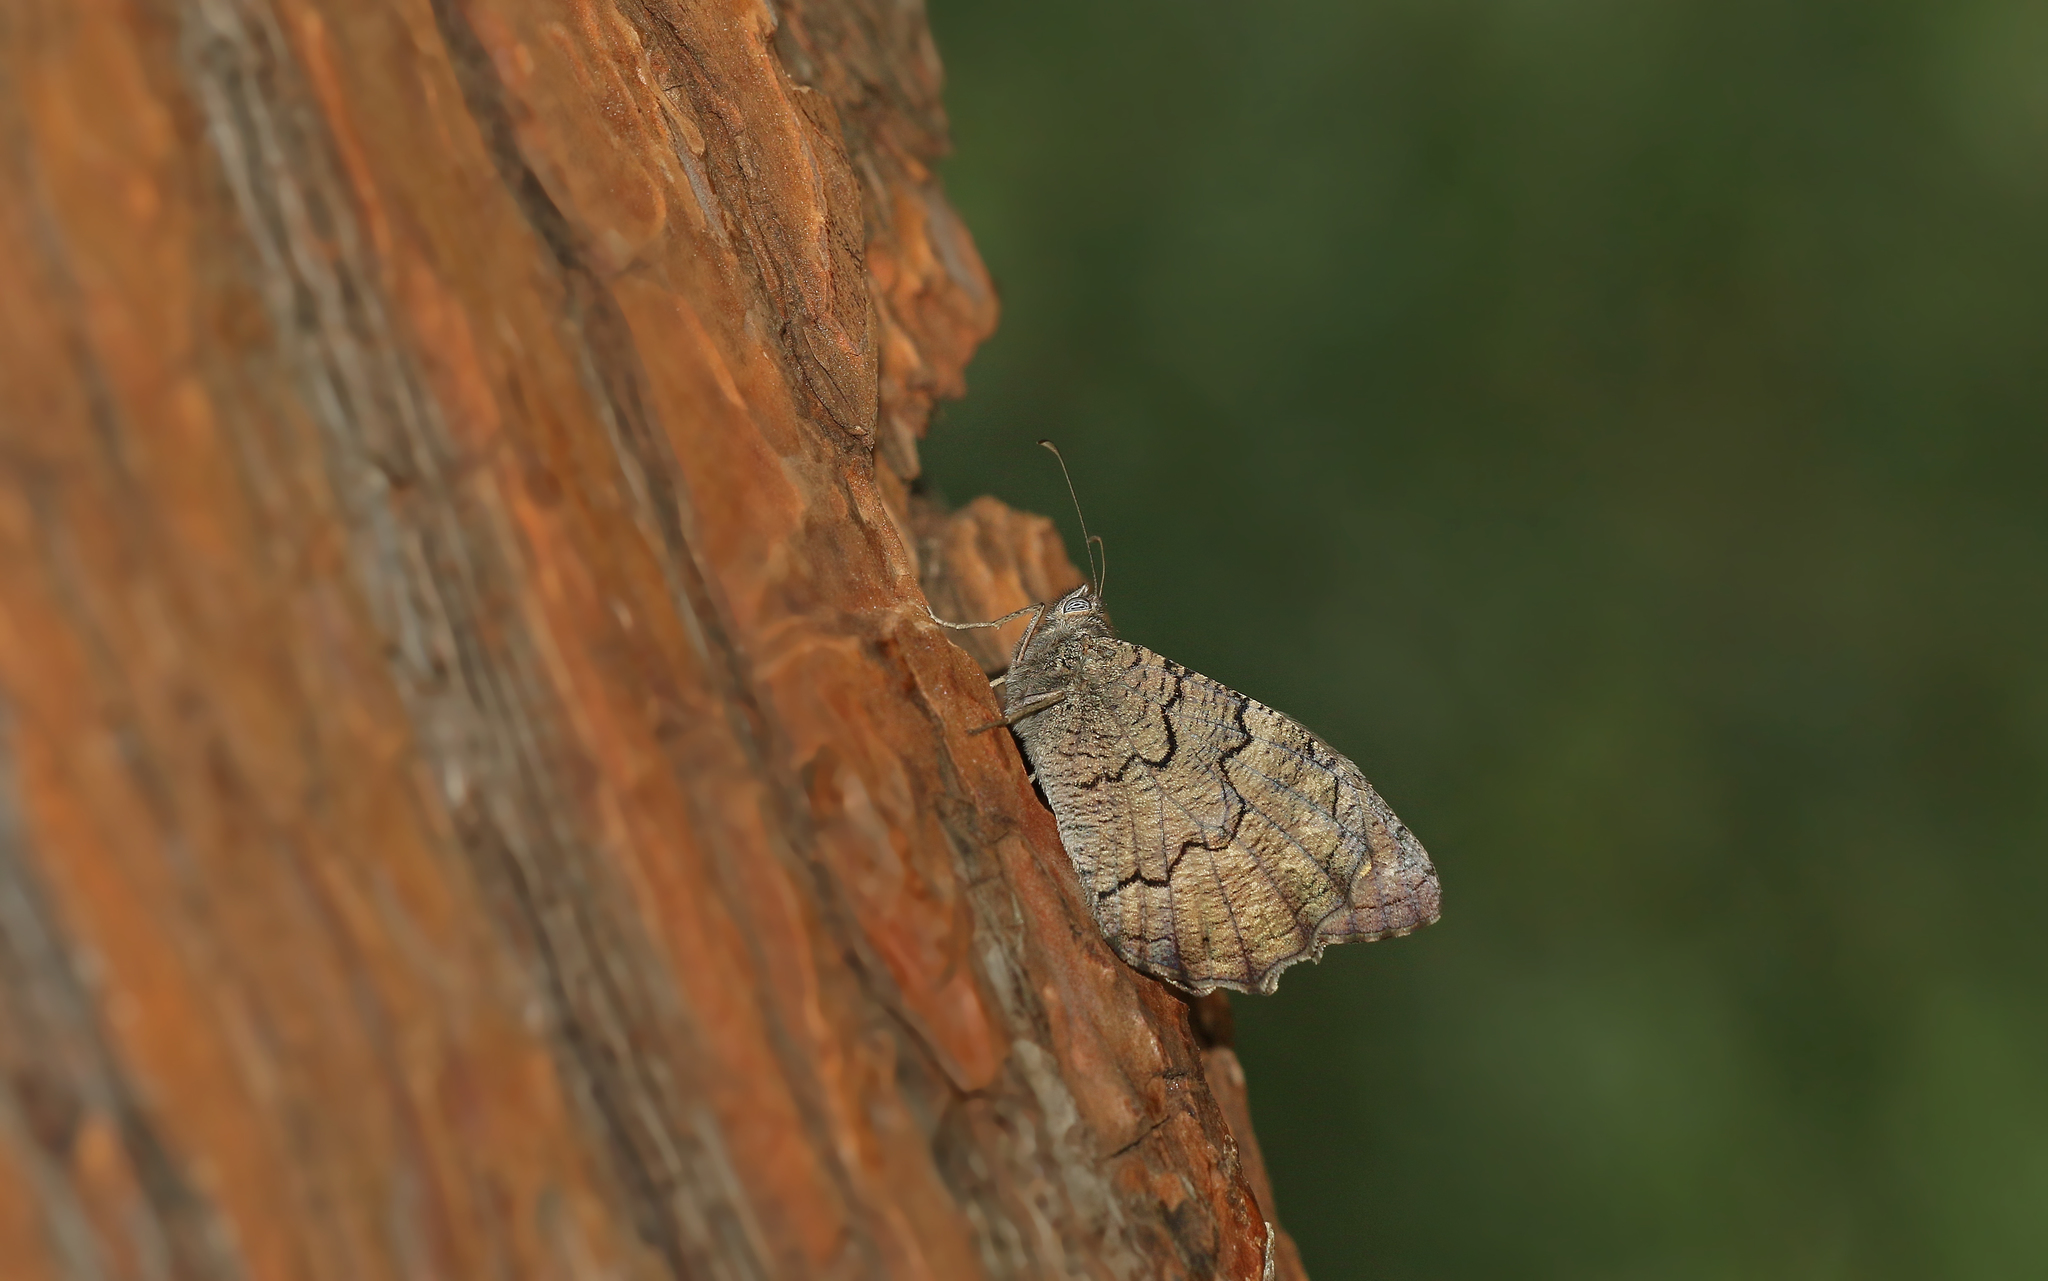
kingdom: Animalia
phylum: Arthropoda
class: Insecta
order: Lepidoptera
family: Nymphalidae
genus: Hipparchia
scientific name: Hipparchia fatua
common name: Freyer's grayling
